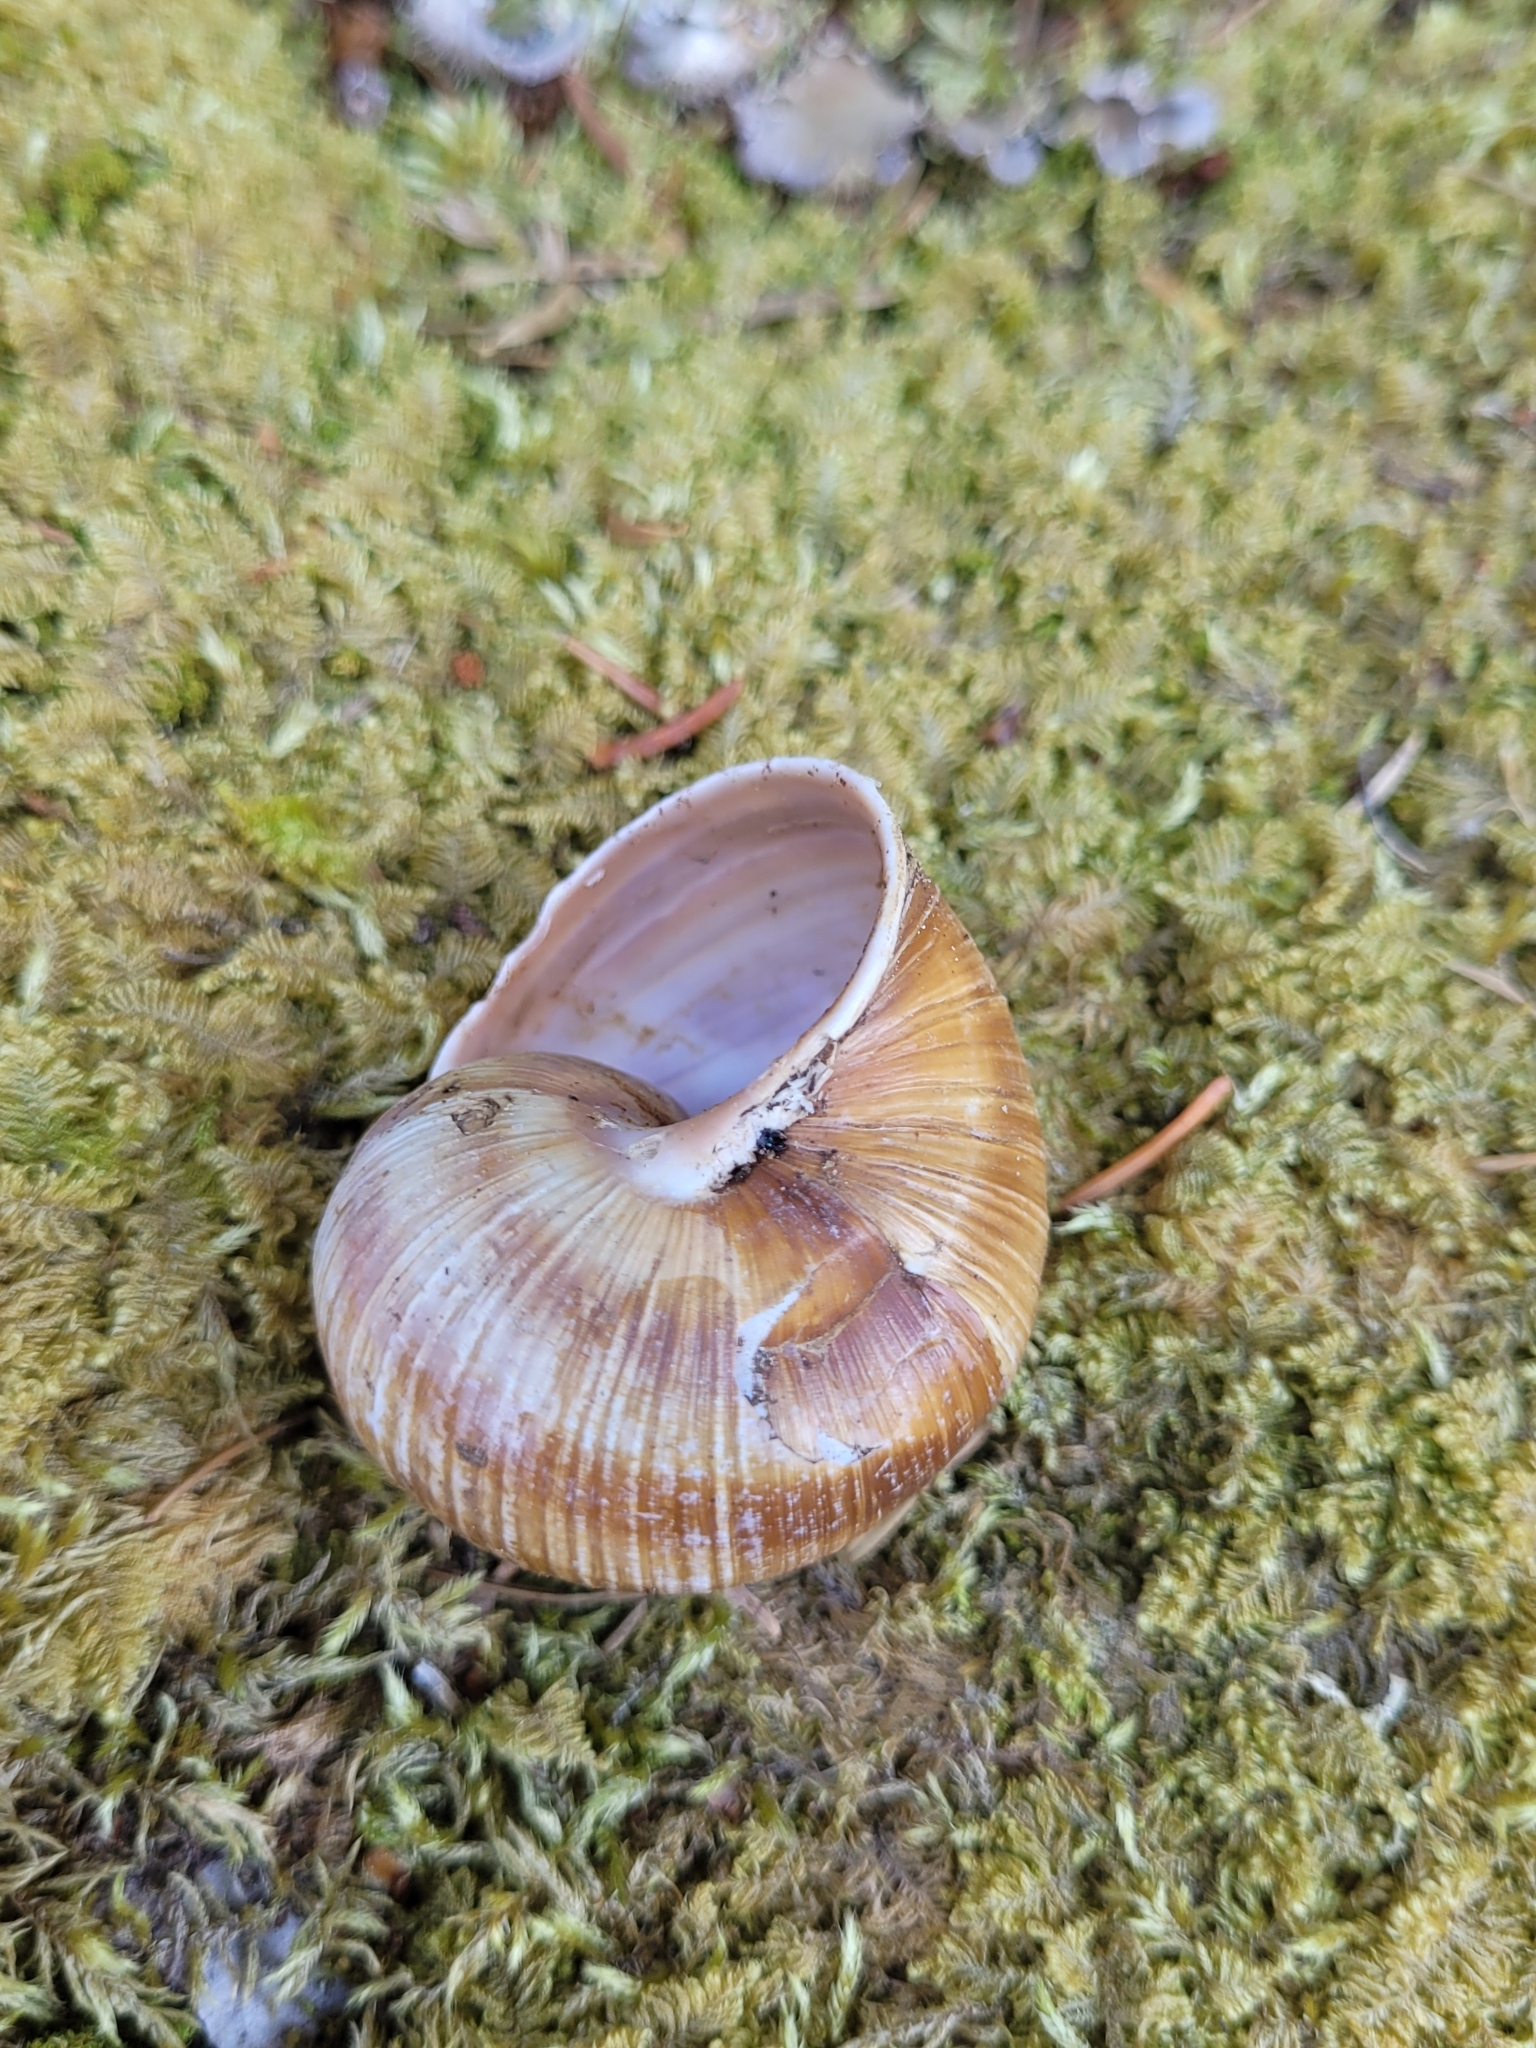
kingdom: Animalia
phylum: Mollusca
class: Gastropoda
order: Stylommatophora
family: Helicidae
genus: Helix
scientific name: Helix pomatia
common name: Roman snail
